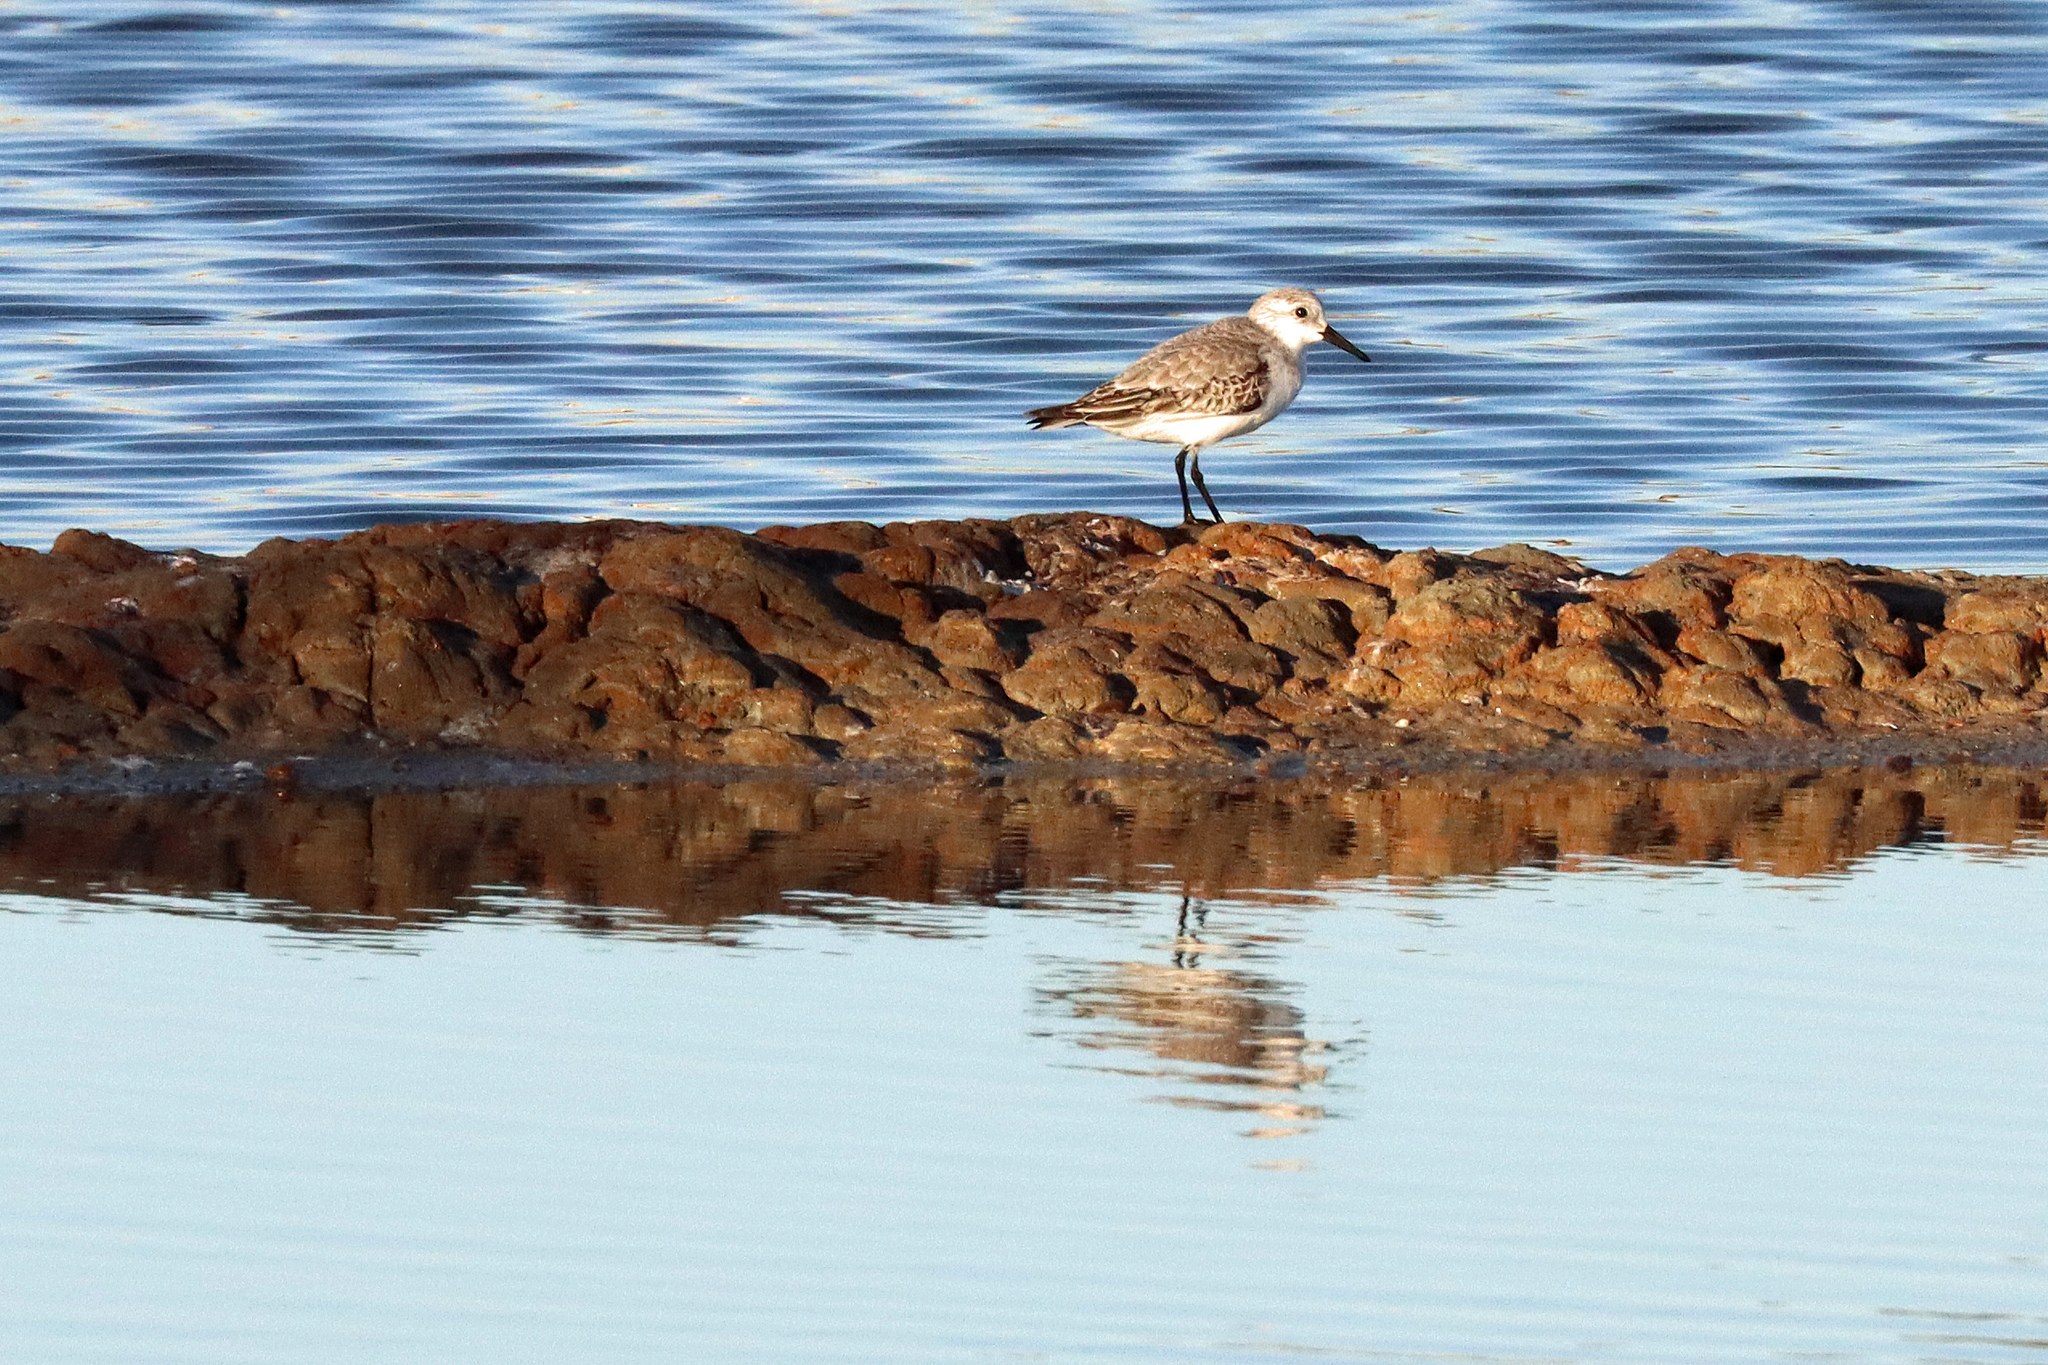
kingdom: Animalia
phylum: Chordata
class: Aves
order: Charadriiformes
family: Scolopacidae
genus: Calidris
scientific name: Calidris alba
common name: Sanderling
